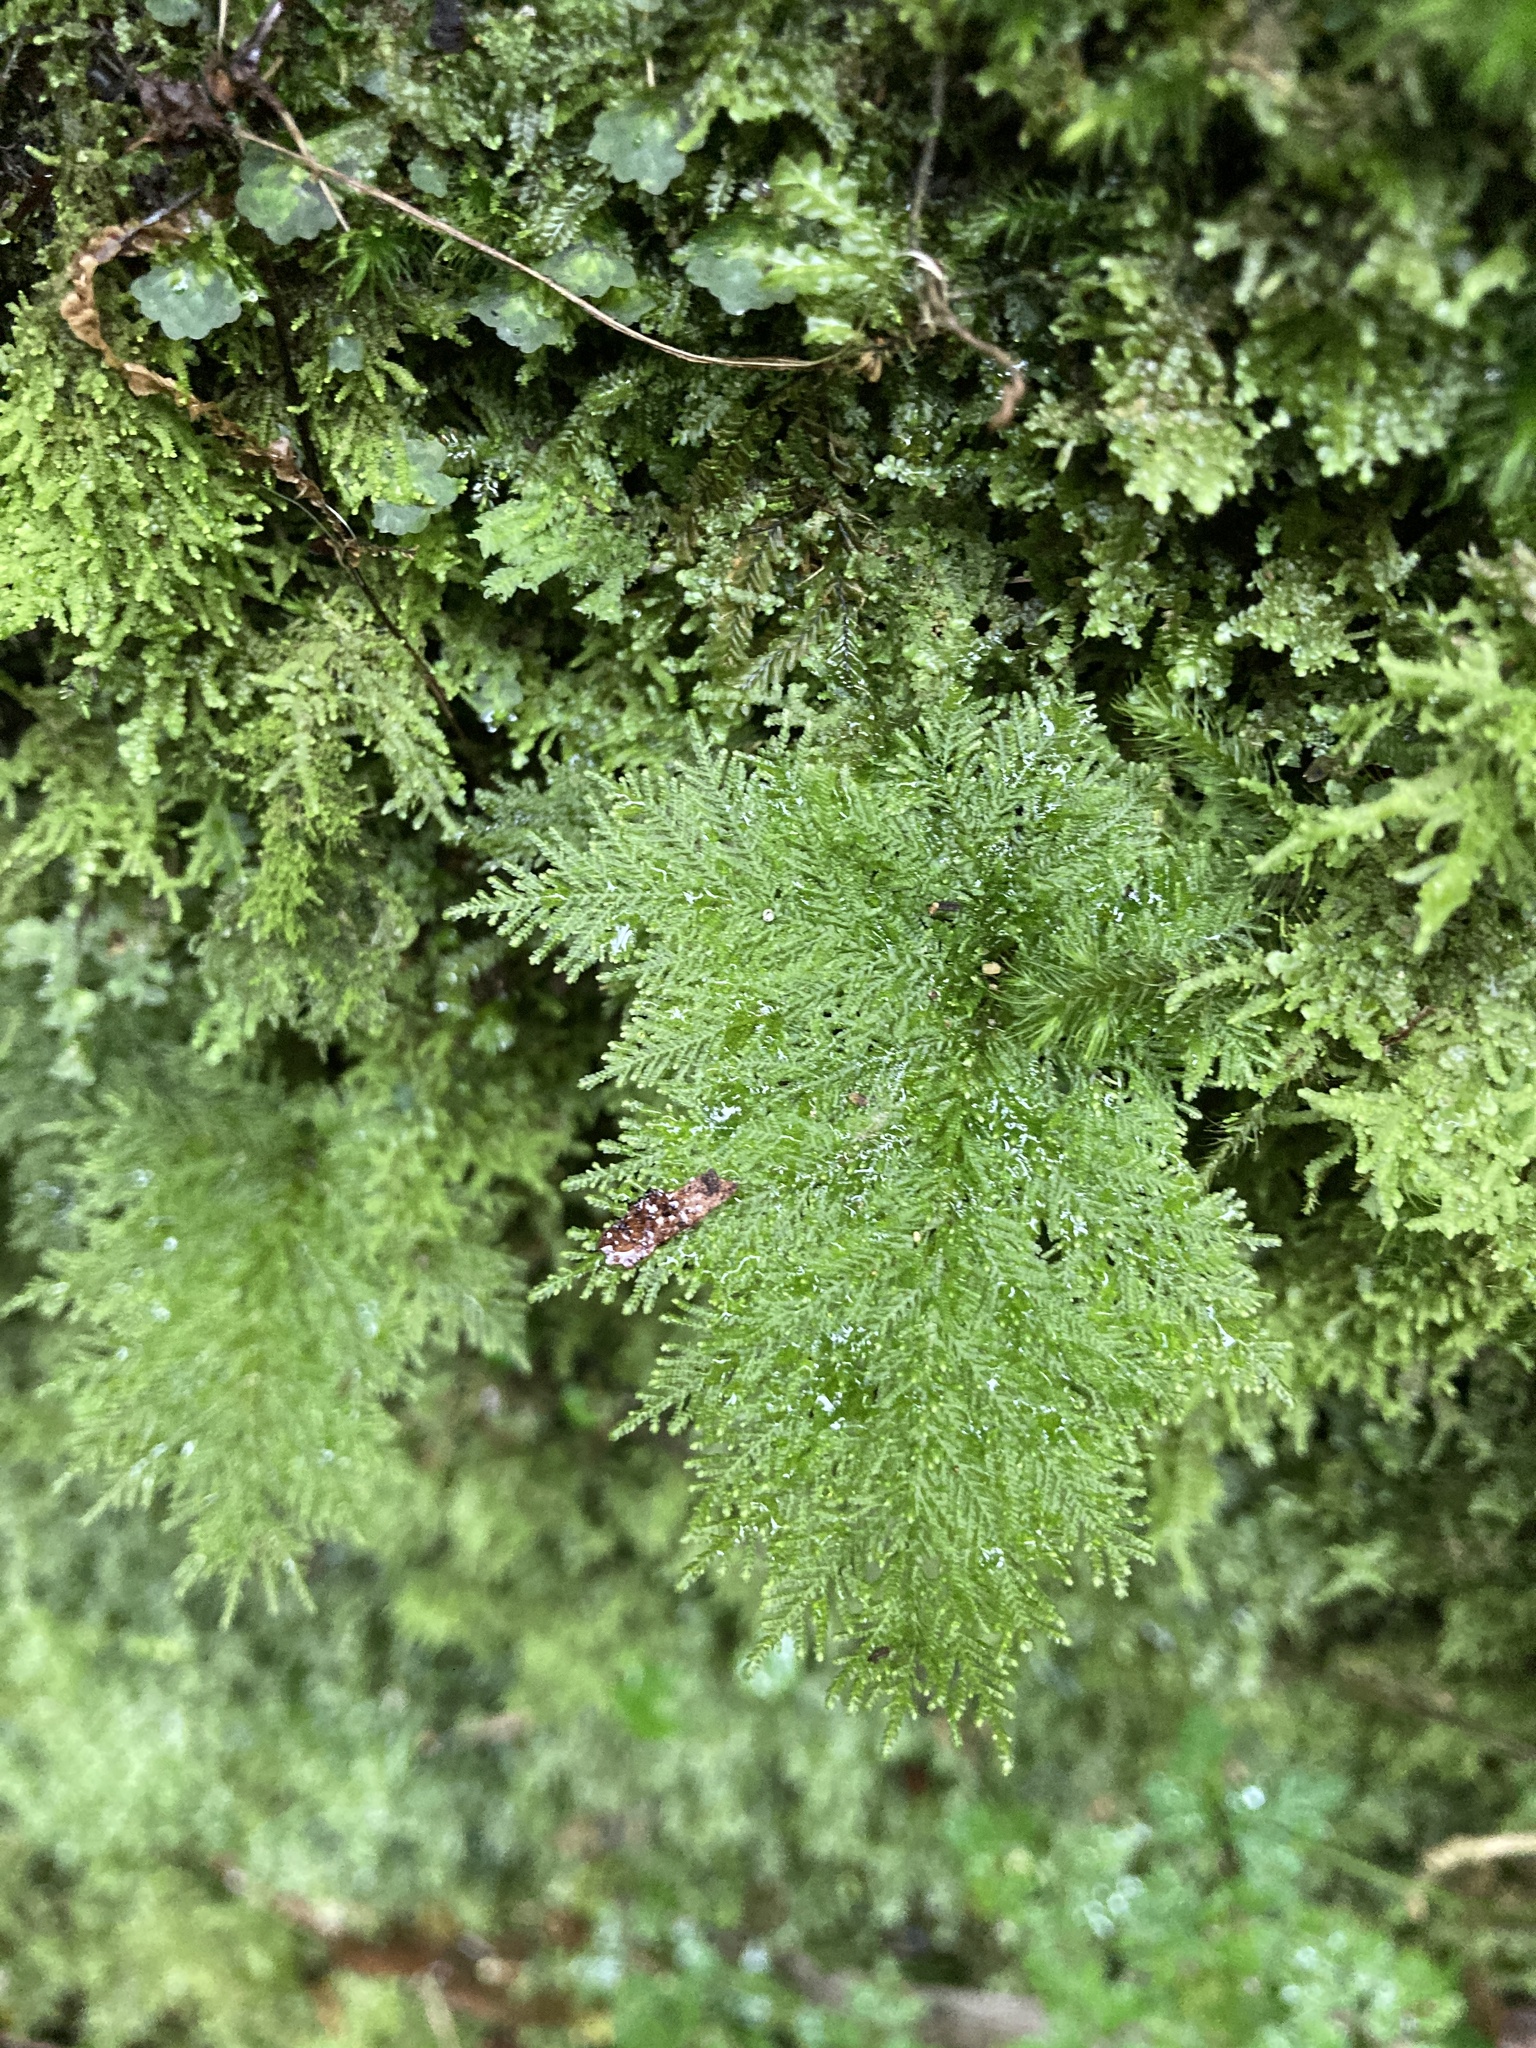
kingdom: Plantae
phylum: Bryophyta
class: Bryopsida
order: Hypopterygiales
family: Hypopterygiaceae
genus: Dendrohypopterygium
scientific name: Dendrohypopterygium filiculiforme
